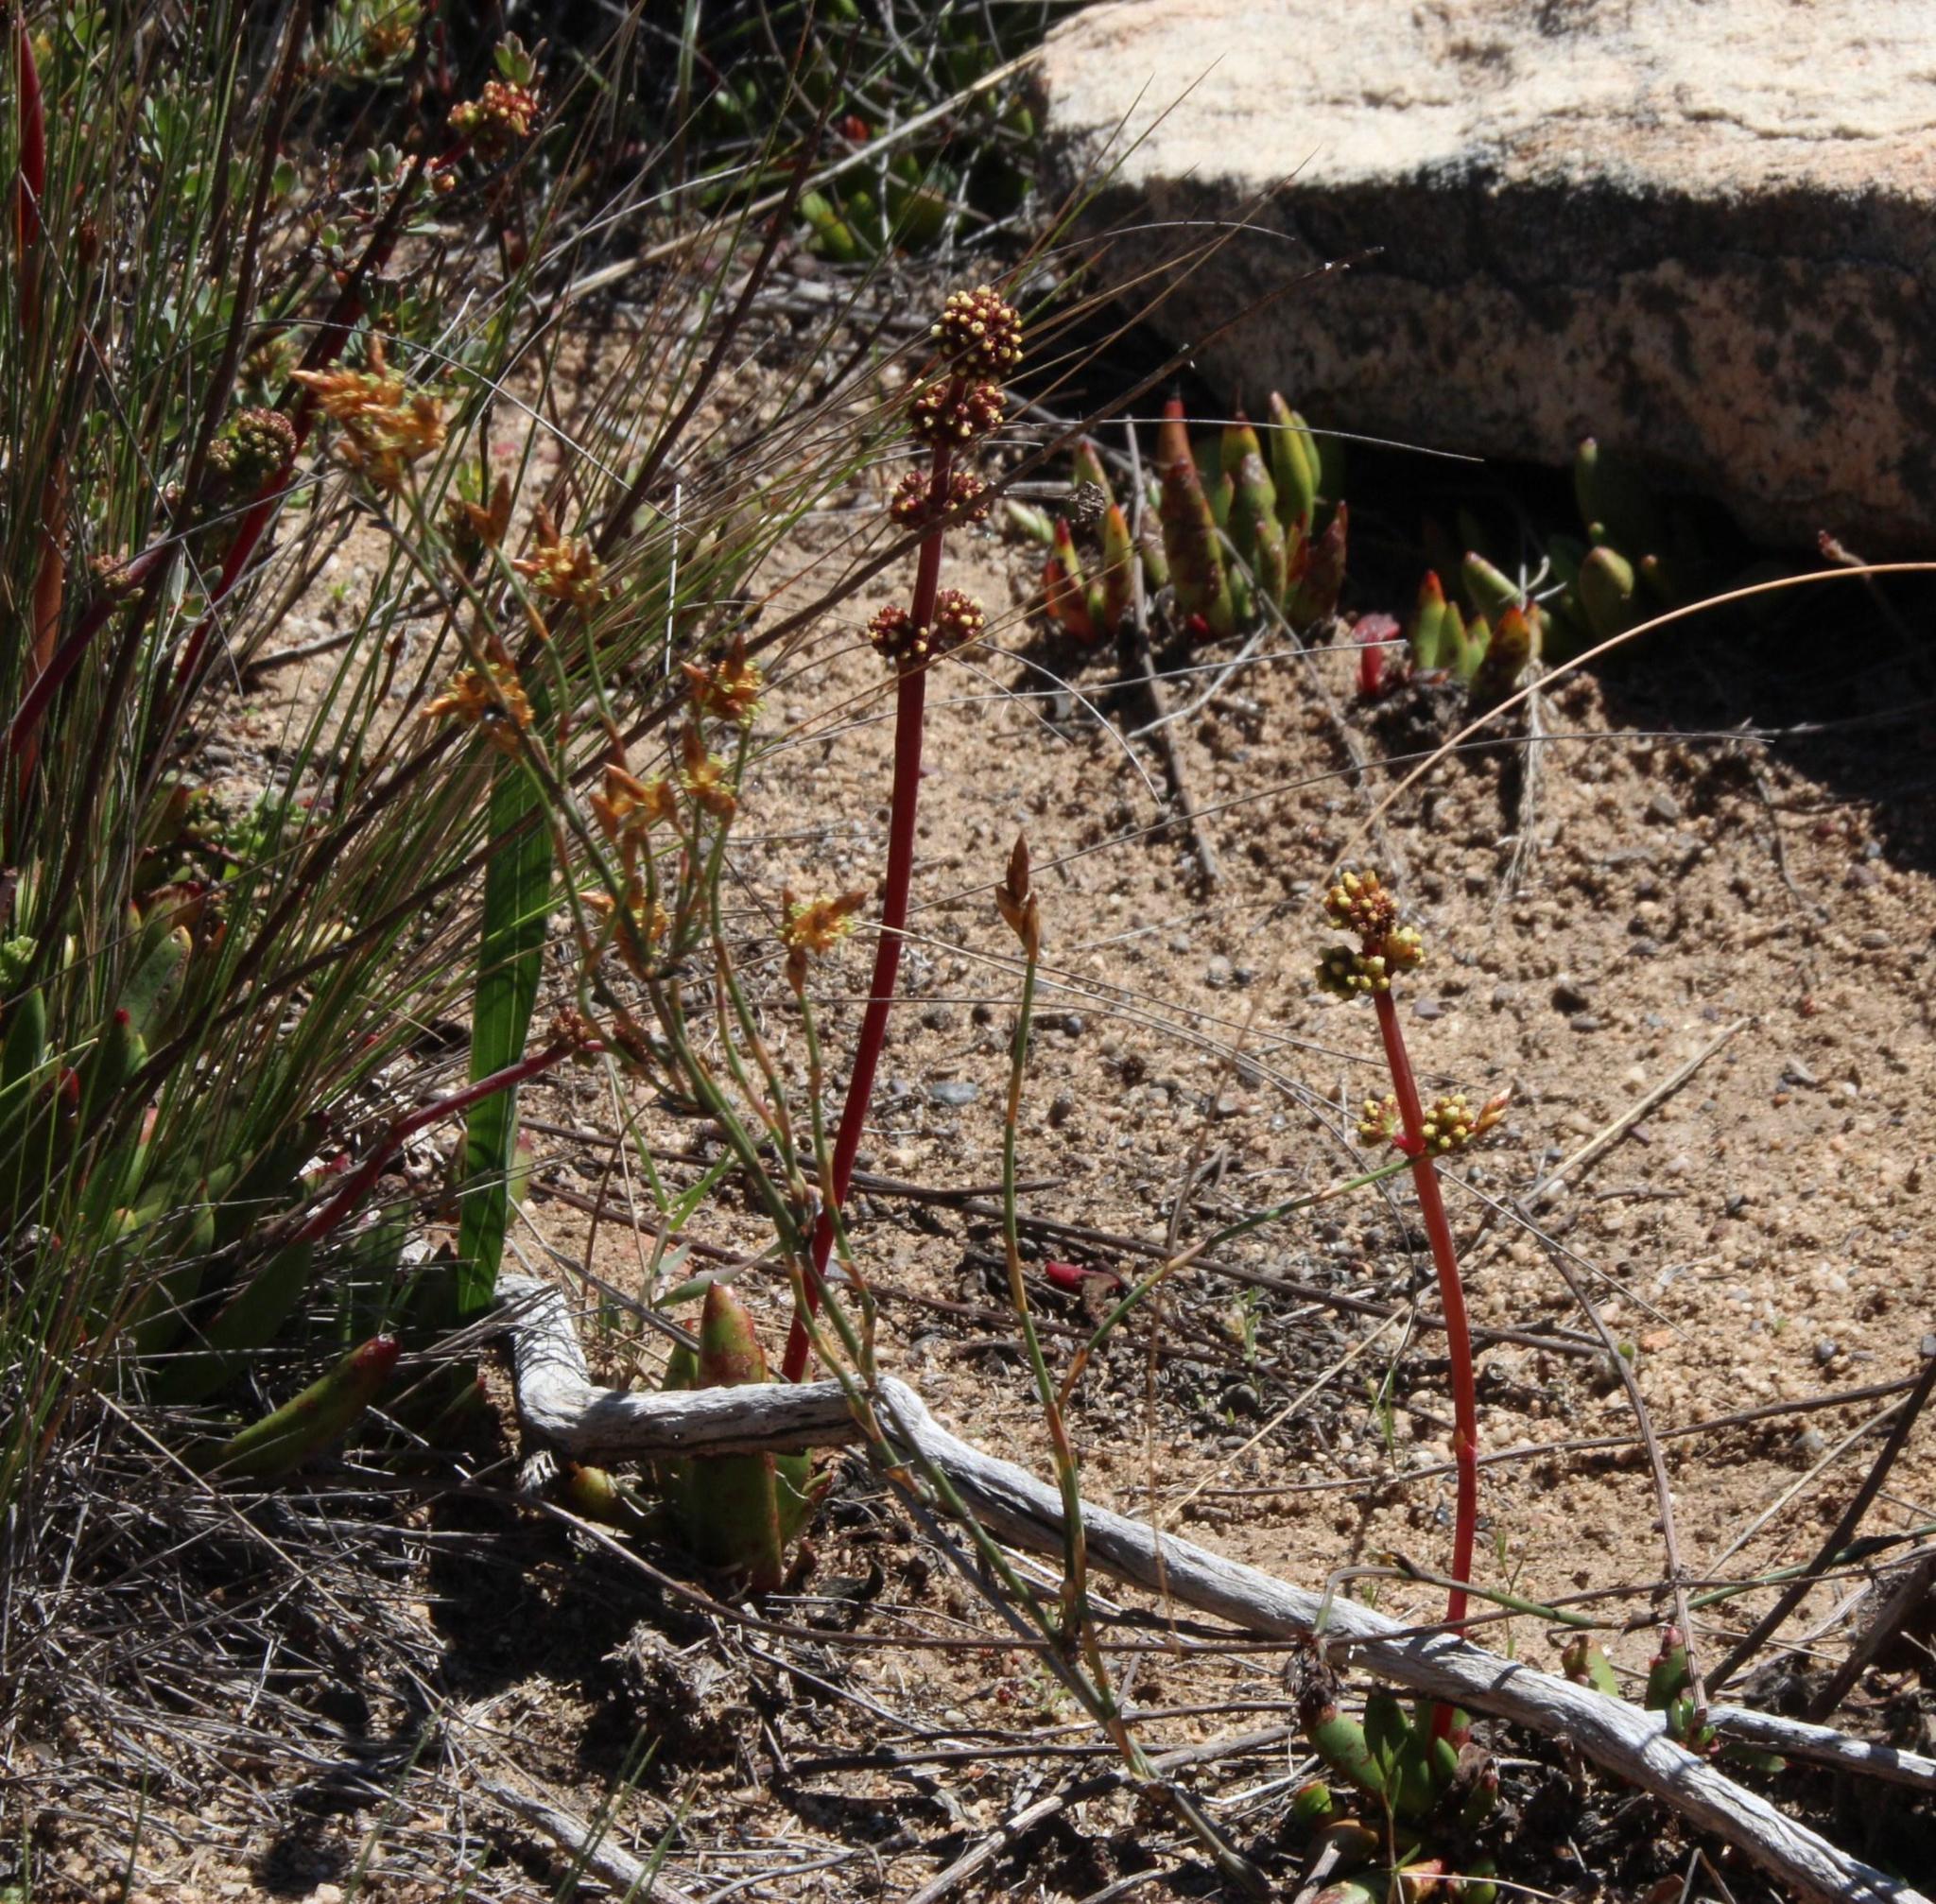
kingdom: Plantae
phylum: Tracheophyta
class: Magnoliopsida
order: Saxifragales
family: Crassulaceae
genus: Crassula
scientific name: Crassula nudicaulis
